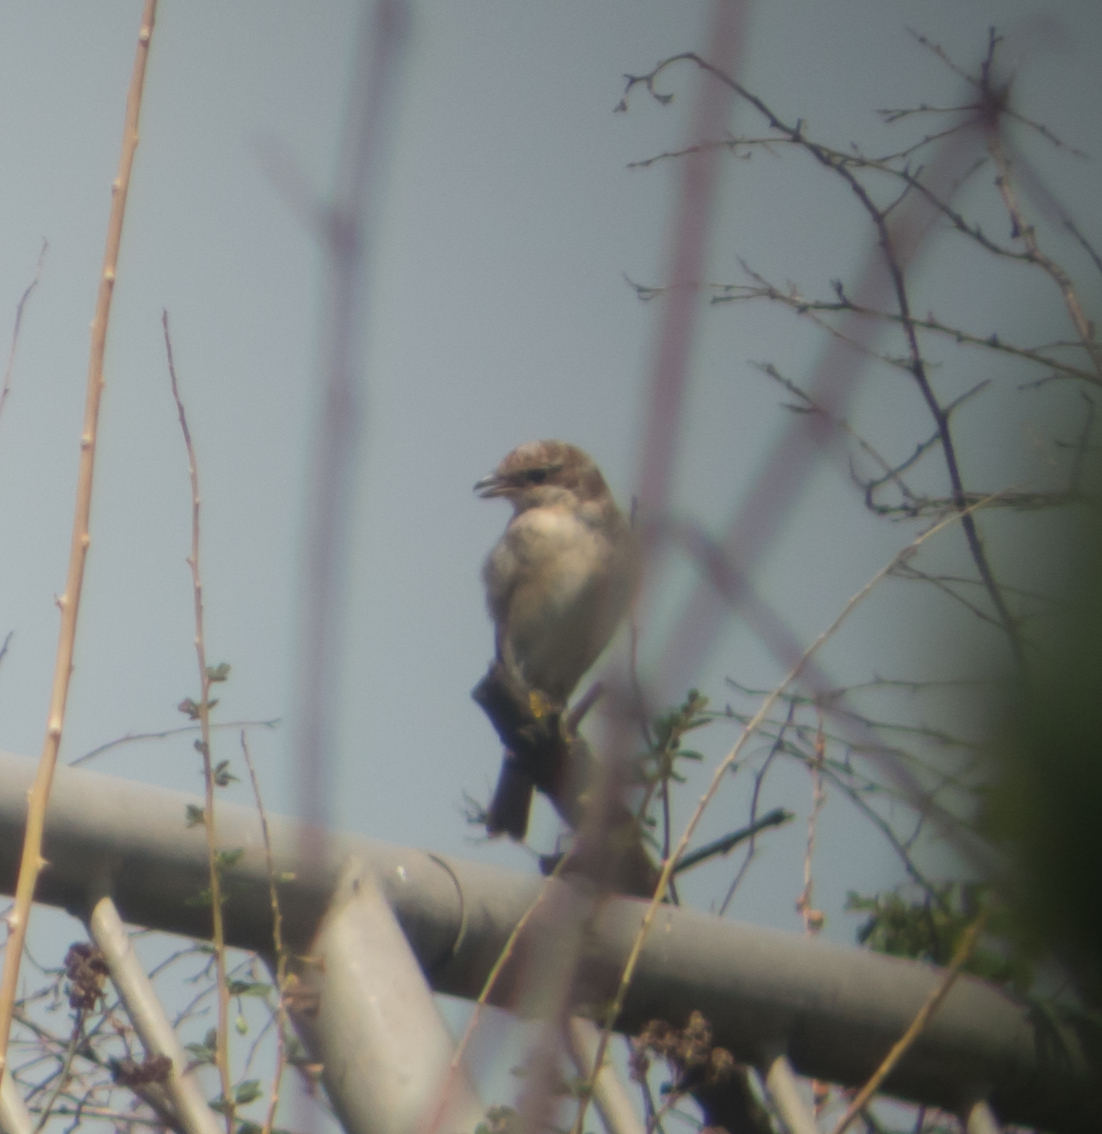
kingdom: Animalia
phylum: Chordata
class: Aves
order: Passeriformes
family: Laniidae
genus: Lanius
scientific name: Lanius collurio
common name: Red-backed shrike
